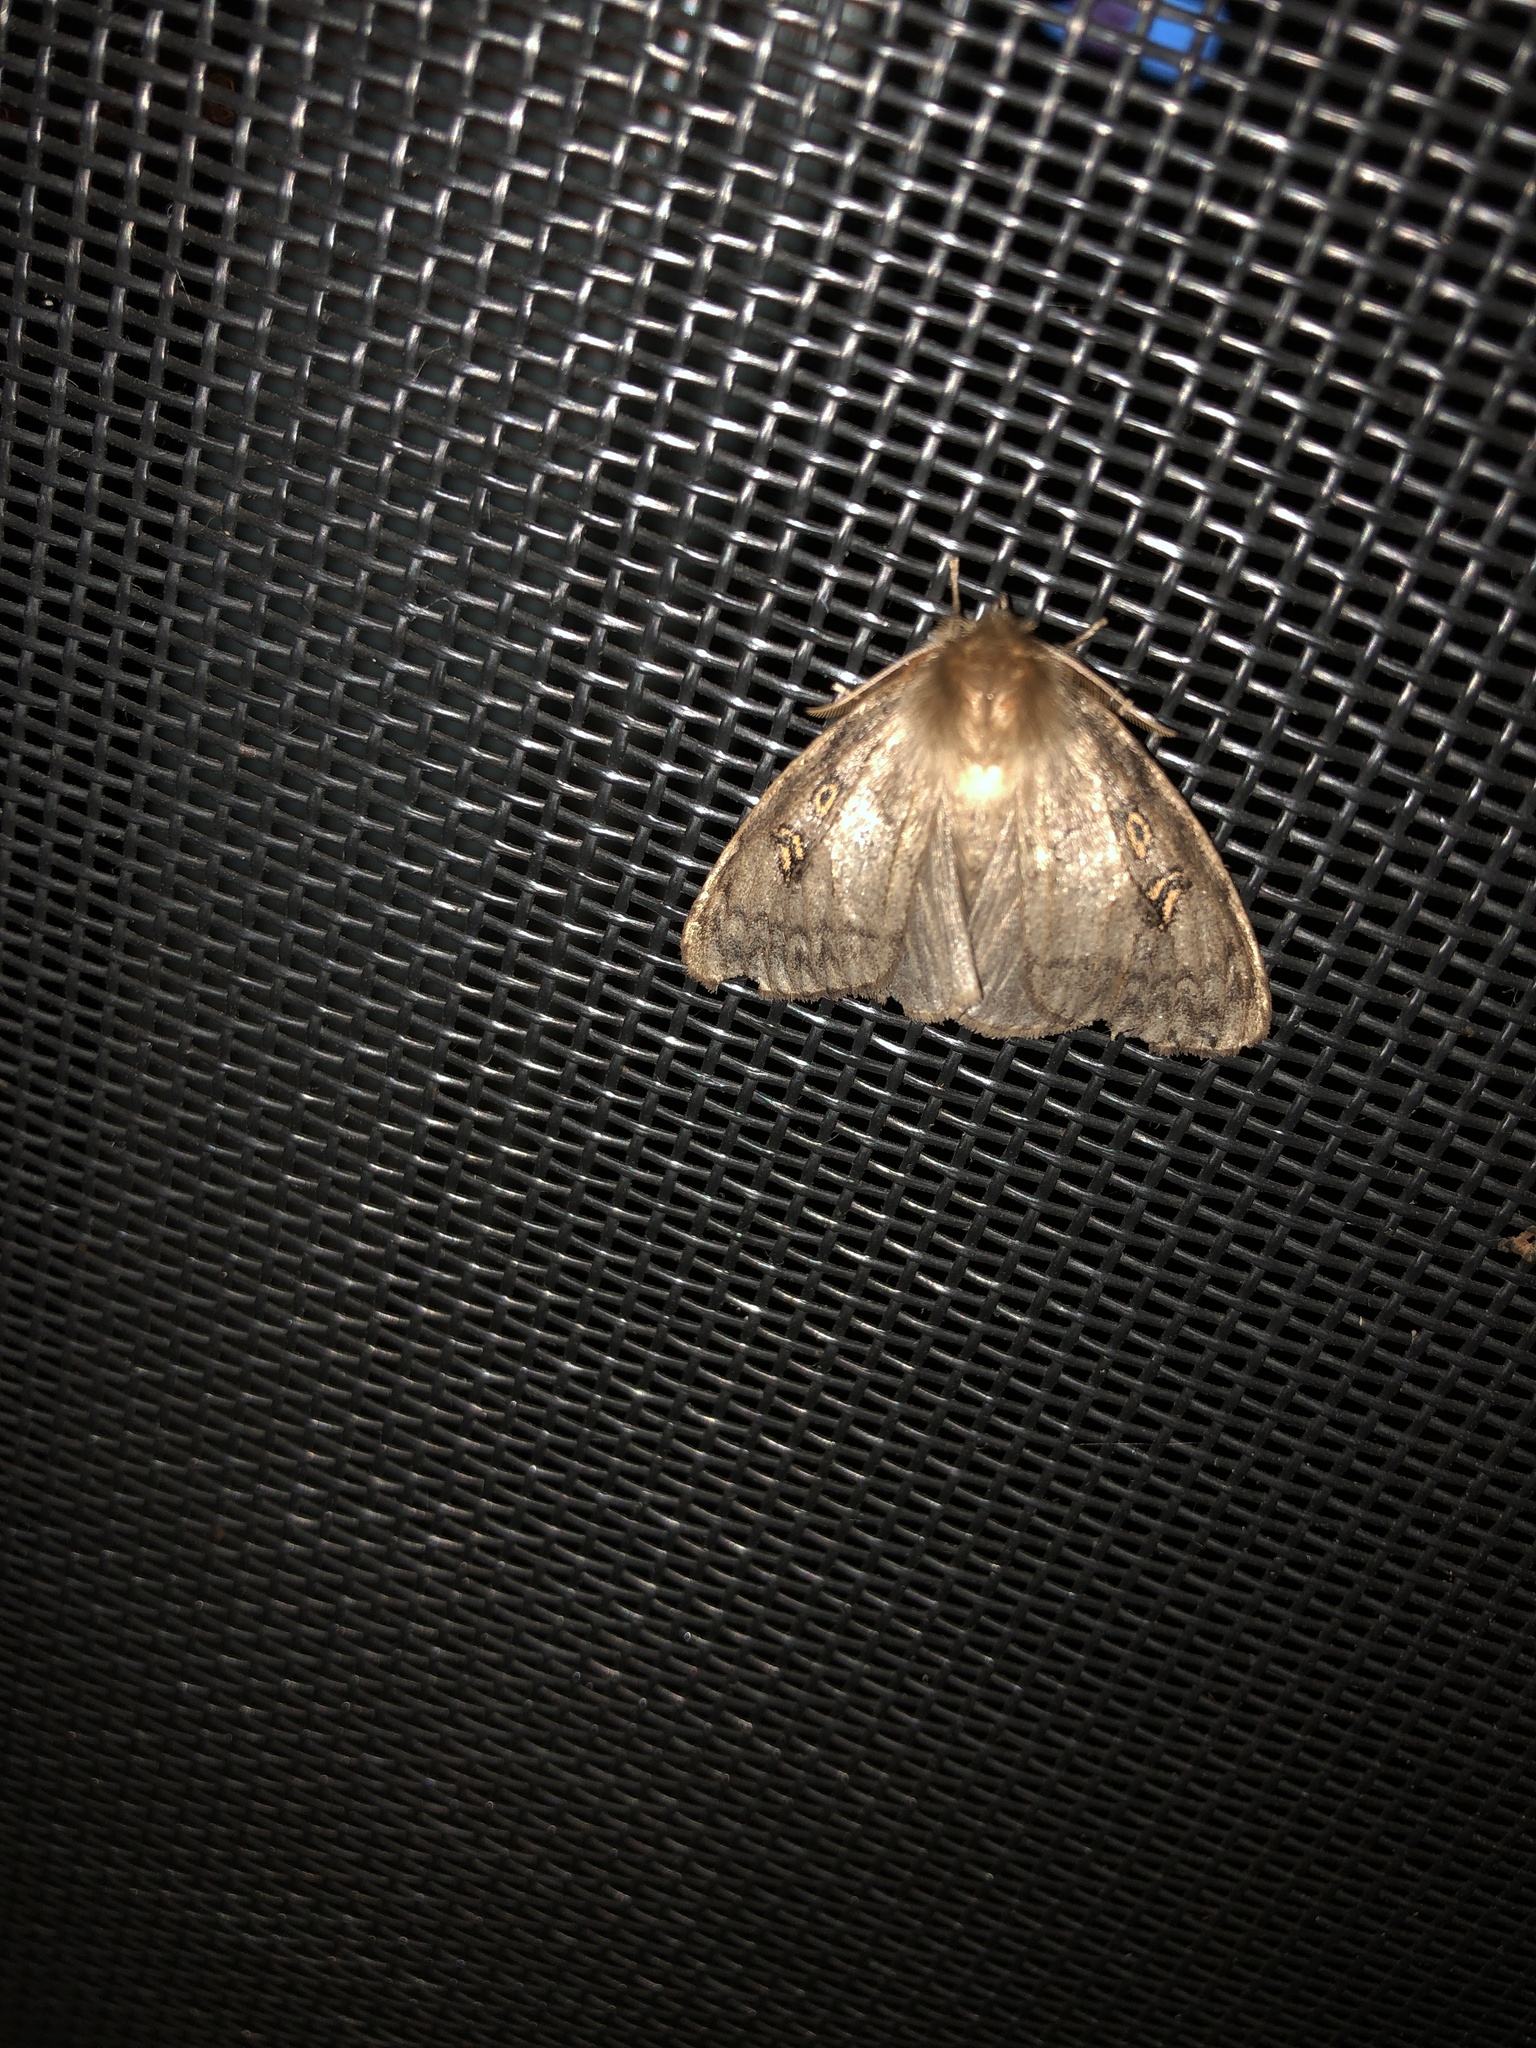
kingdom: Animalia
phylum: Arthropoda
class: Insecta
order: Lepidoptera
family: Erebidae
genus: Leptocneria
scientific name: Leptocneria reducta
